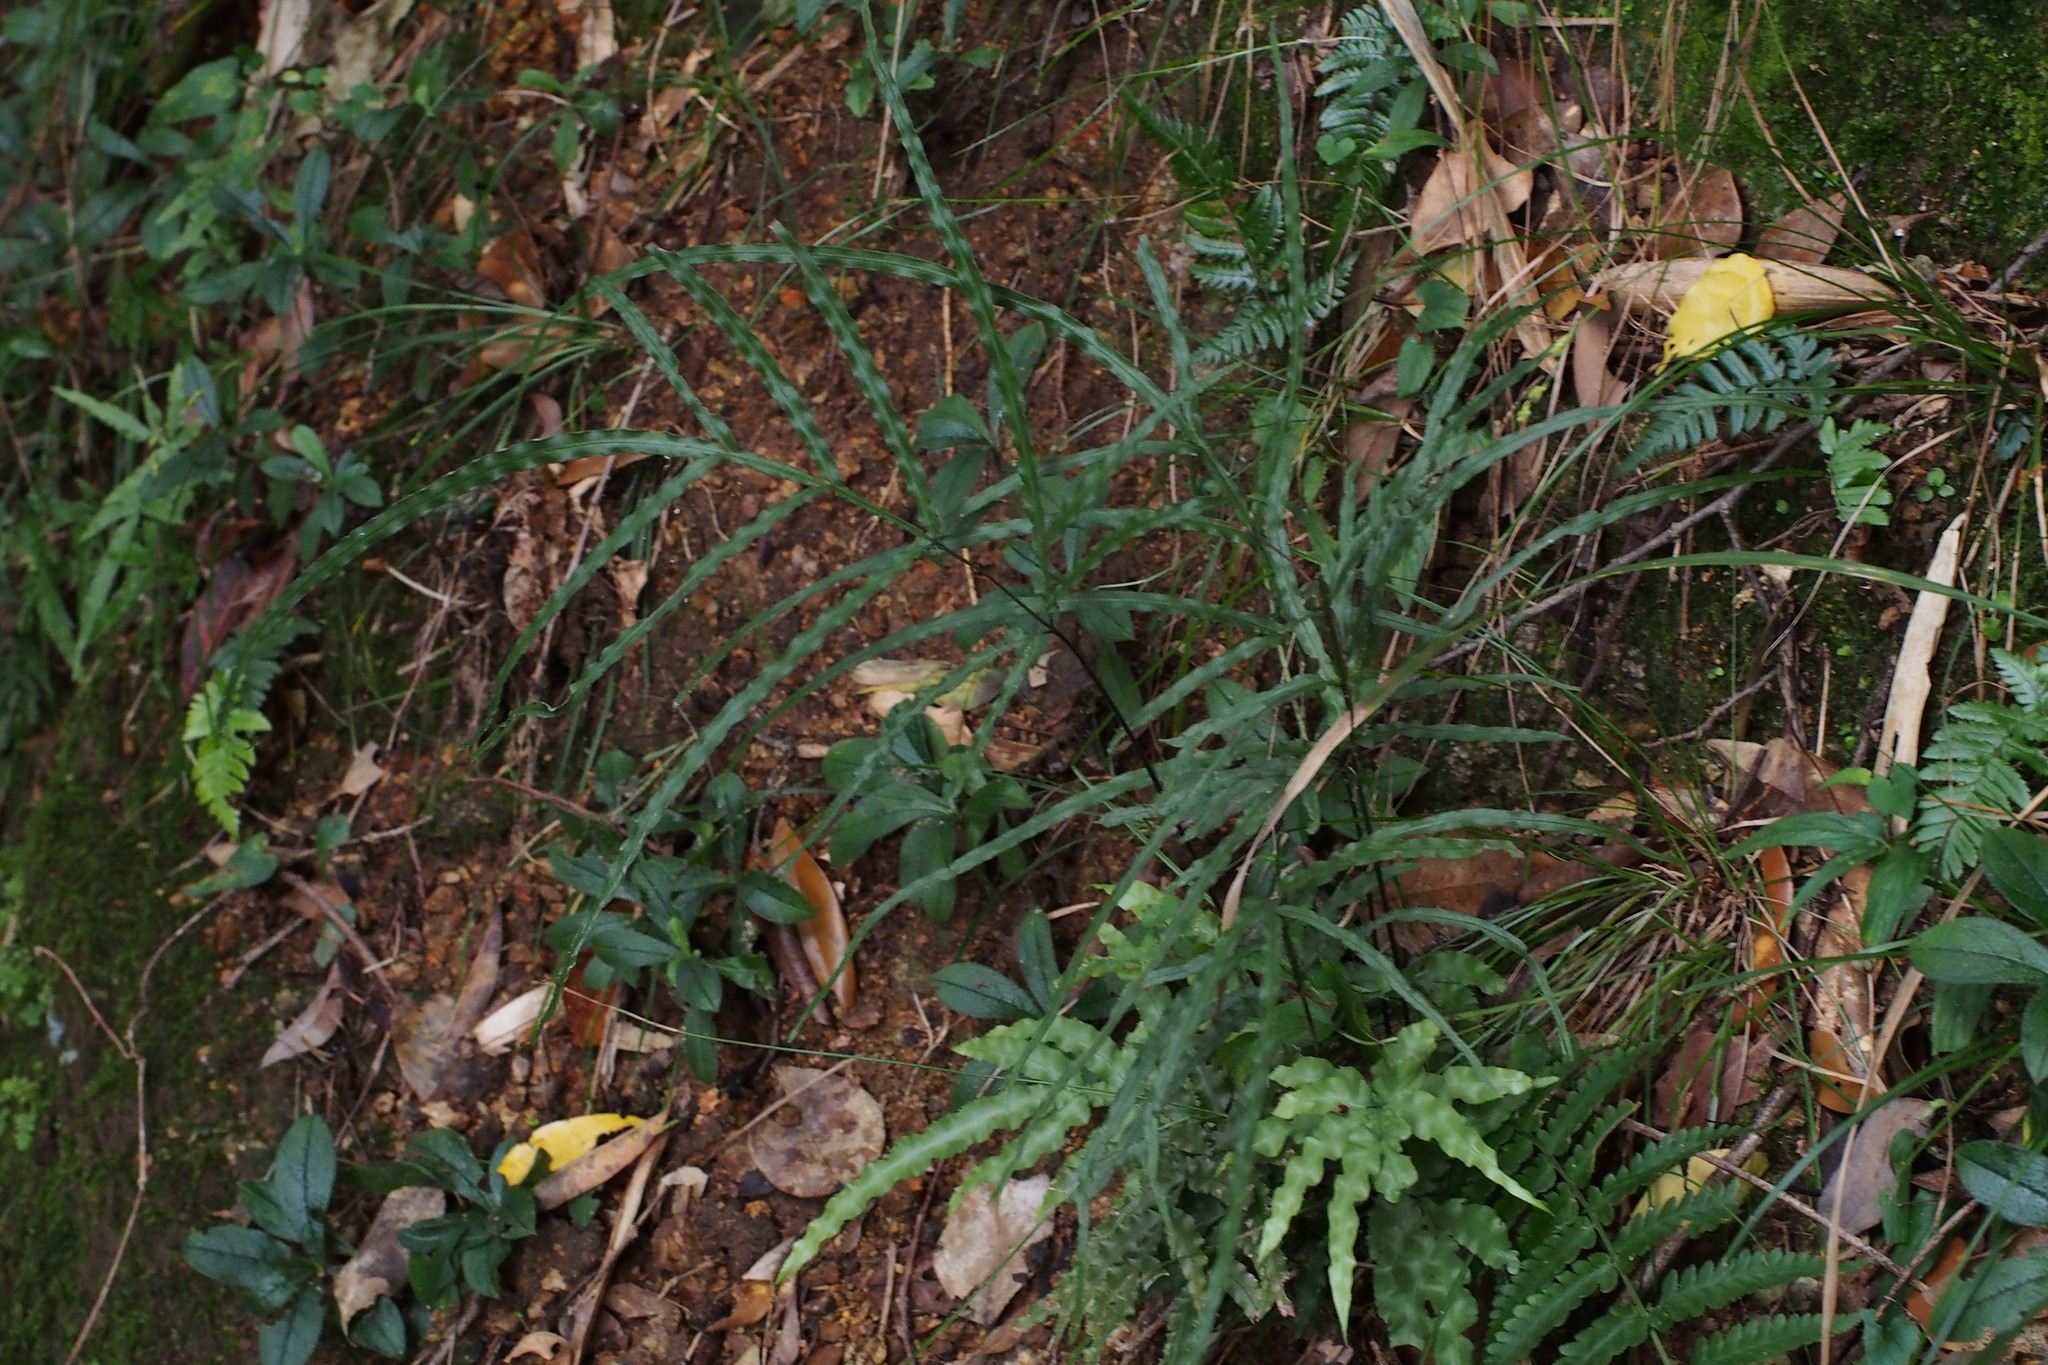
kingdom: Plantae
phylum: Tracheophyta
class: Polypodiopsida
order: Polypodiales
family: Pteridaceae
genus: Pteris
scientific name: Pteris cretica
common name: Ribbon fern
